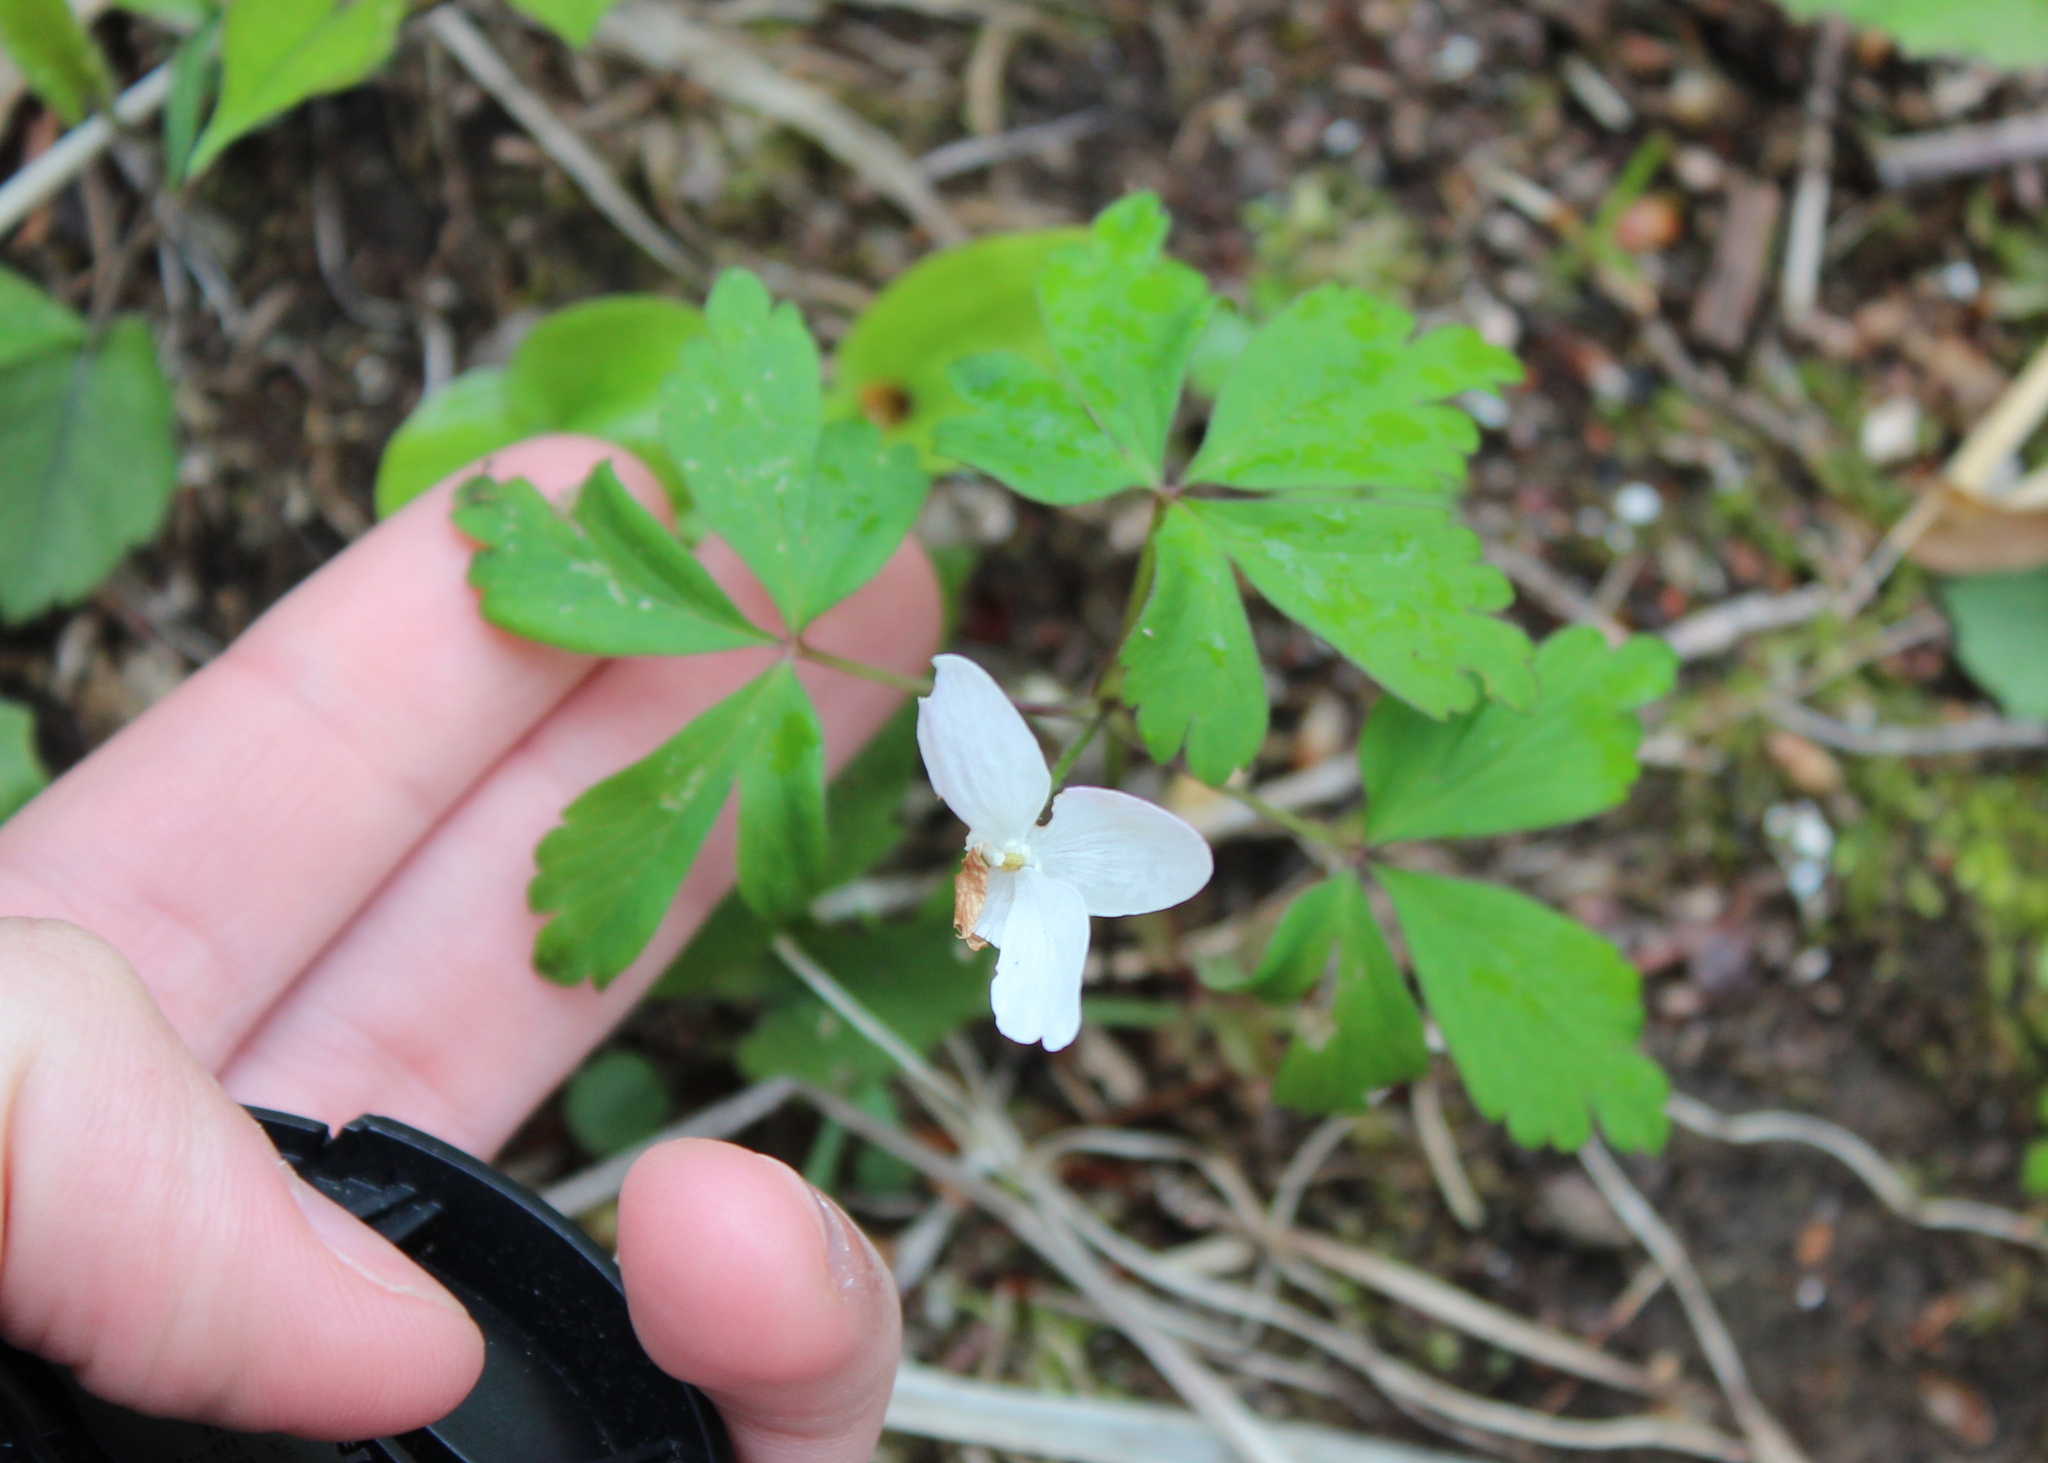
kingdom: Plantae
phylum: Tracheophyta
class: Magnoliopsida
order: Ranunculales
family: Ranunculaceae
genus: Anemone
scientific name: Anemone quinquefolia
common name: Wood anemone
